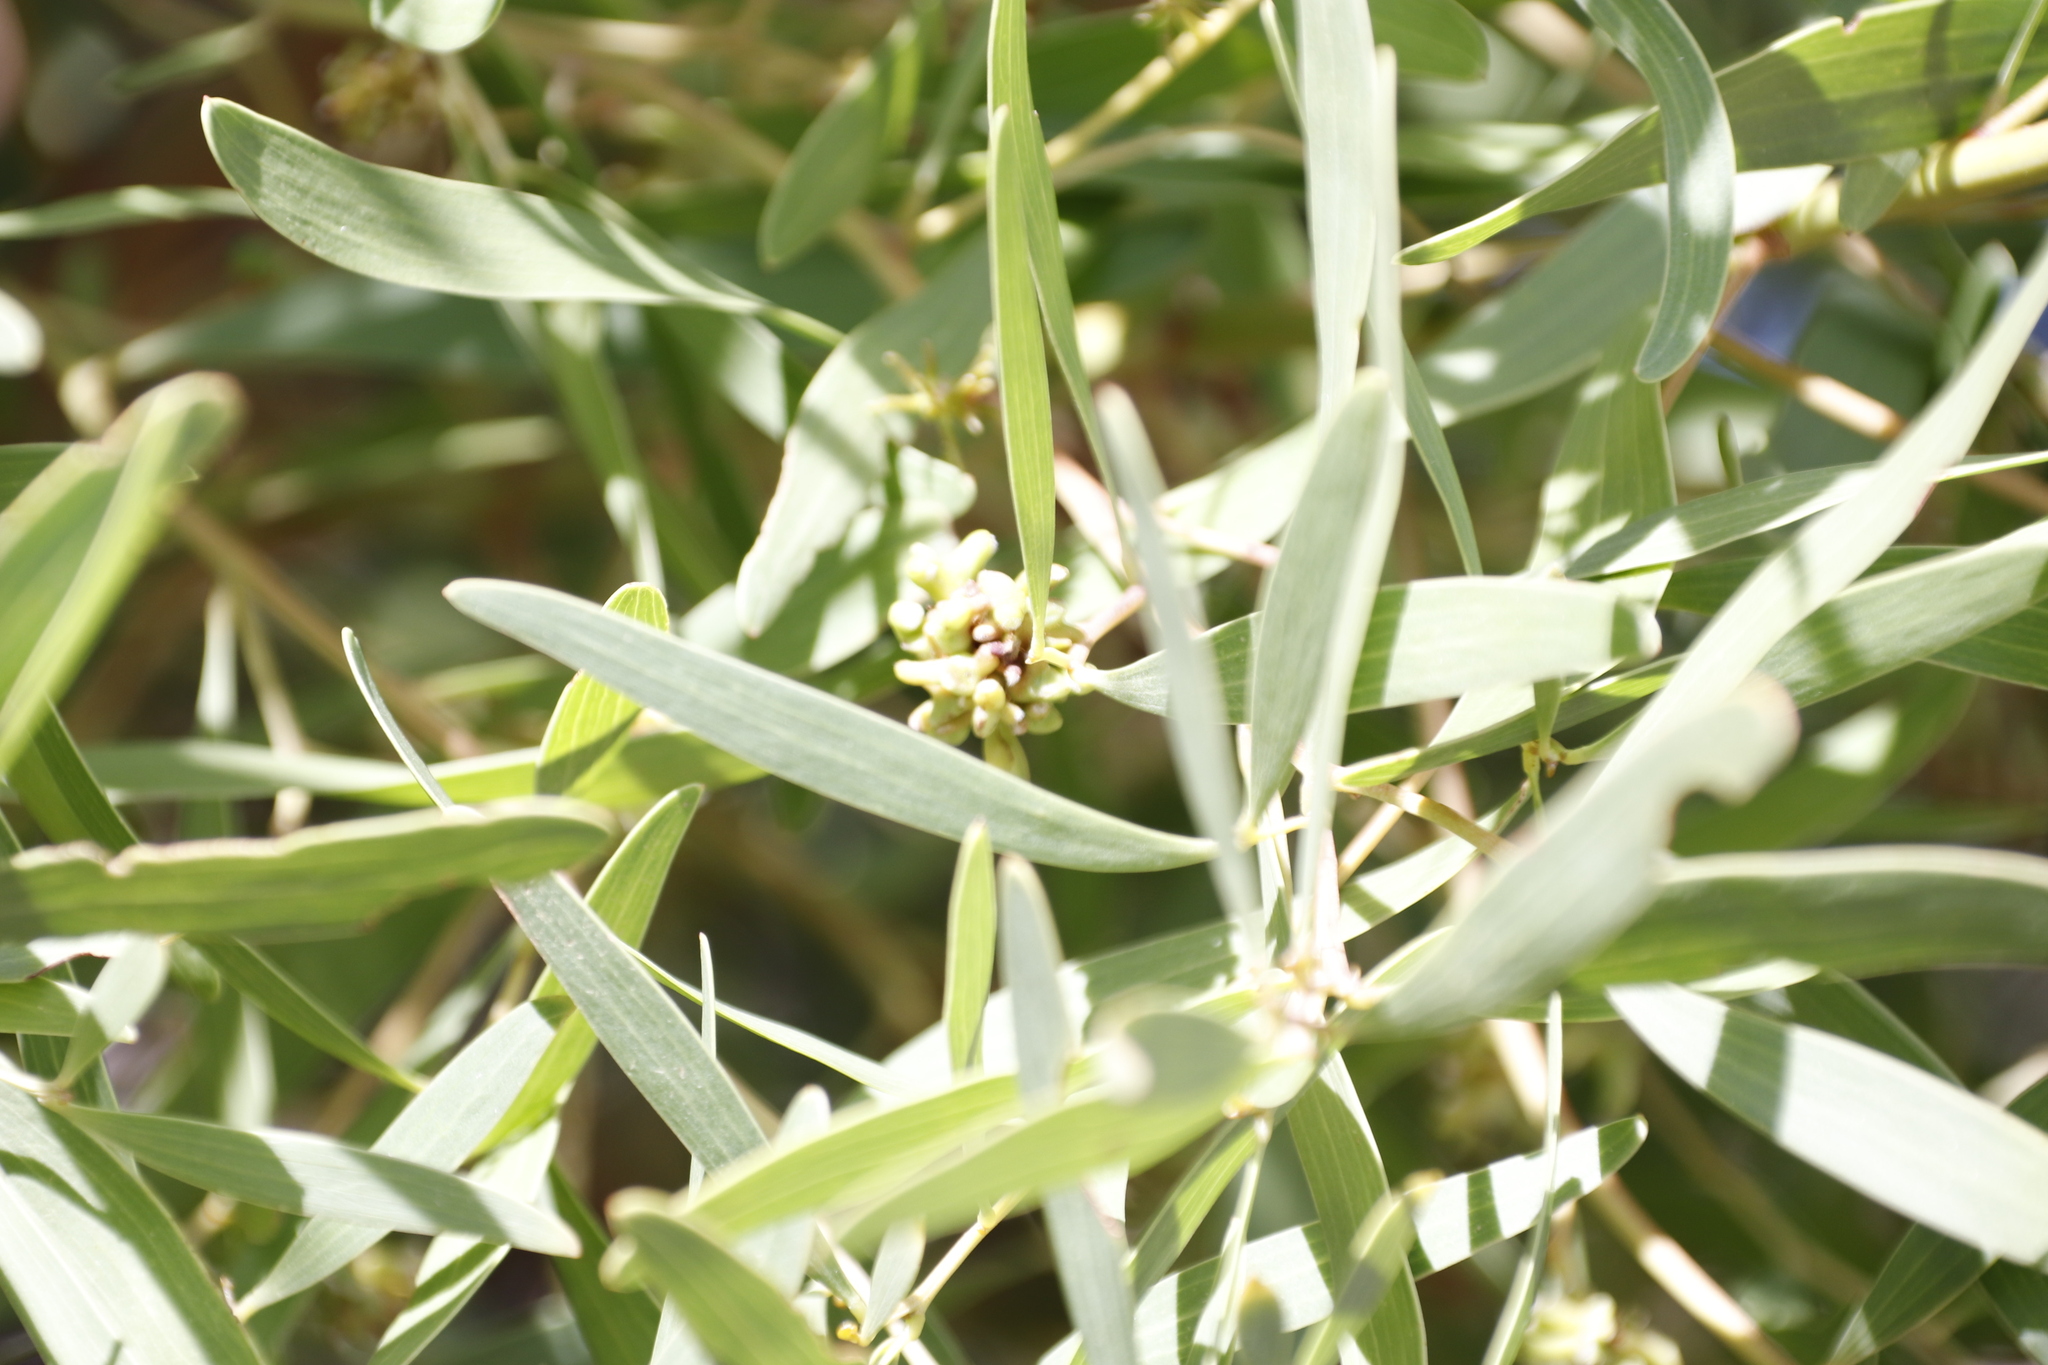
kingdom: Animalia
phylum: Arthropoda
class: Insecta
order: Diptera
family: Cecidomyiidae
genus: Dasineura
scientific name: Dasineura dielsi
